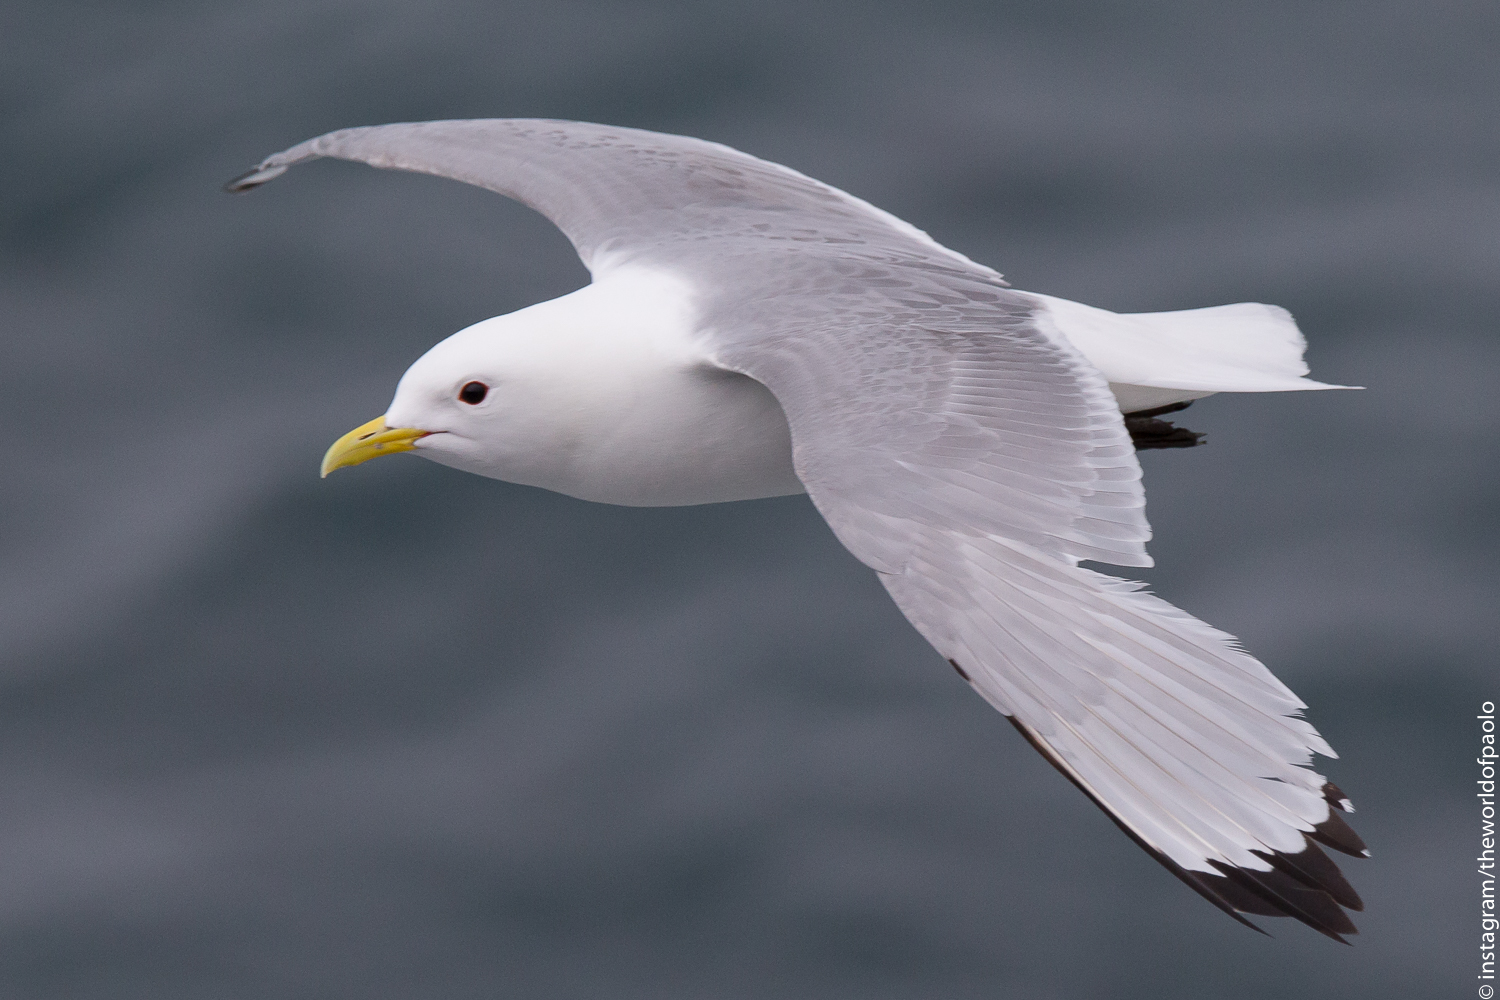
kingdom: Animalia
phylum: Chordata
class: Aves
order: Charadriiformes
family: Laridae
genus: Rissa
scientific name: Rissa tridactyla
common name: Black-legged kittiwake
